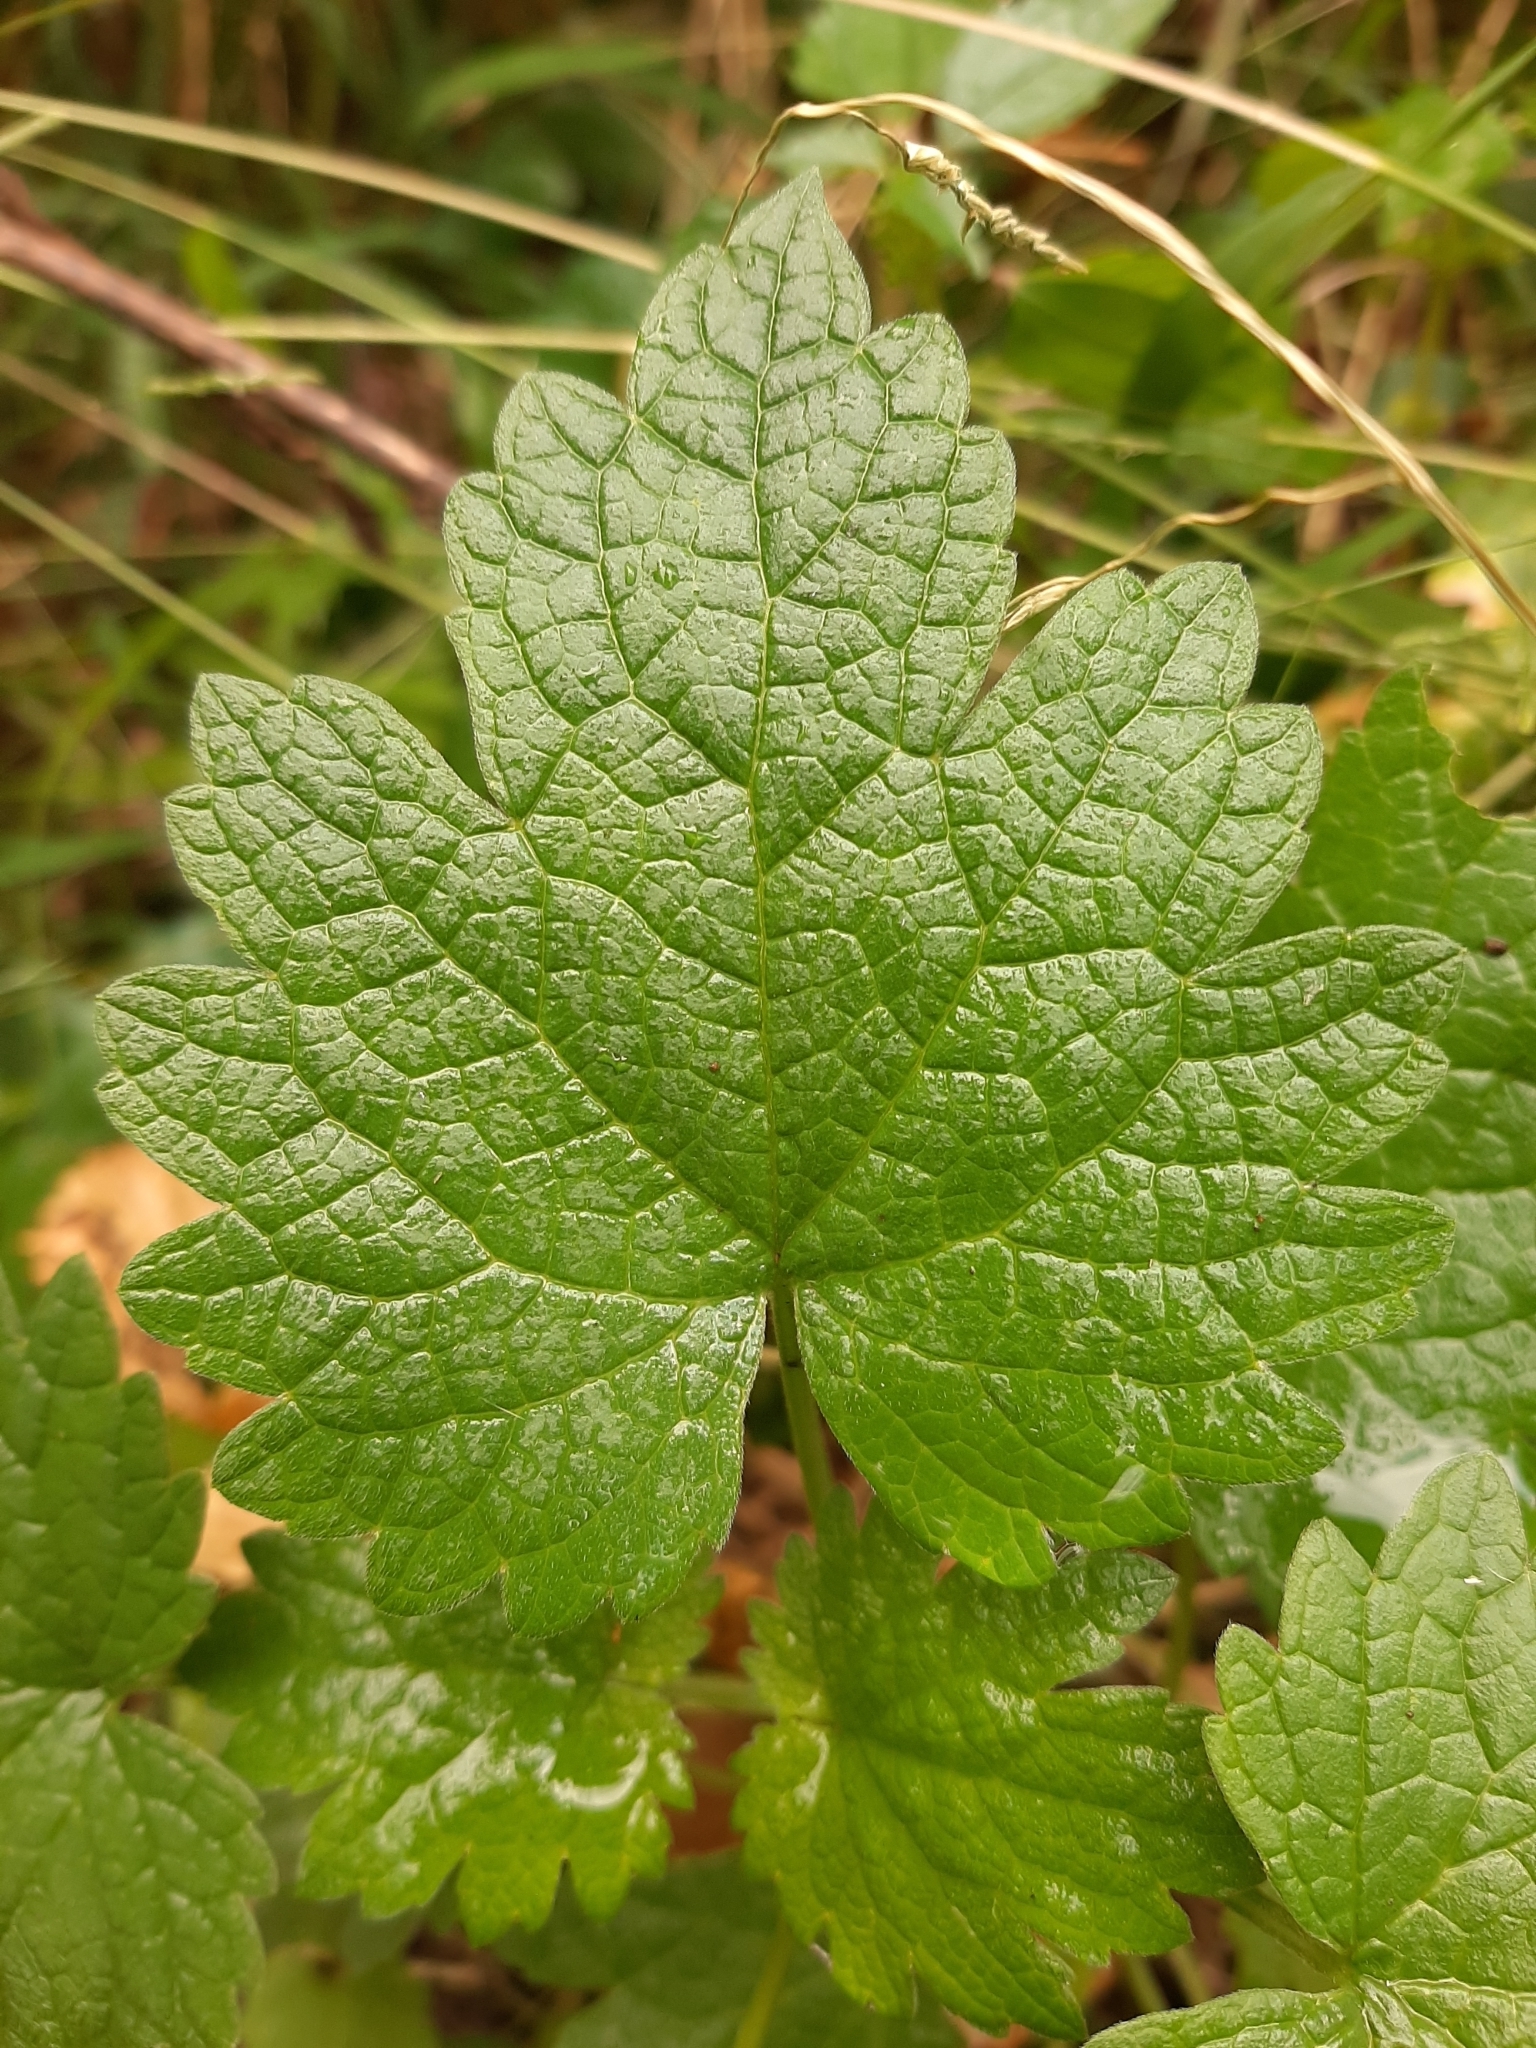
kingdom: Plantae
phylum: Tracheophyta
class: Magnoliopsida
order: Lamiales
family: Lamiaceae
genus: Leonurus
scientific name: Leonurus cardiaca
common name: Motherwort
